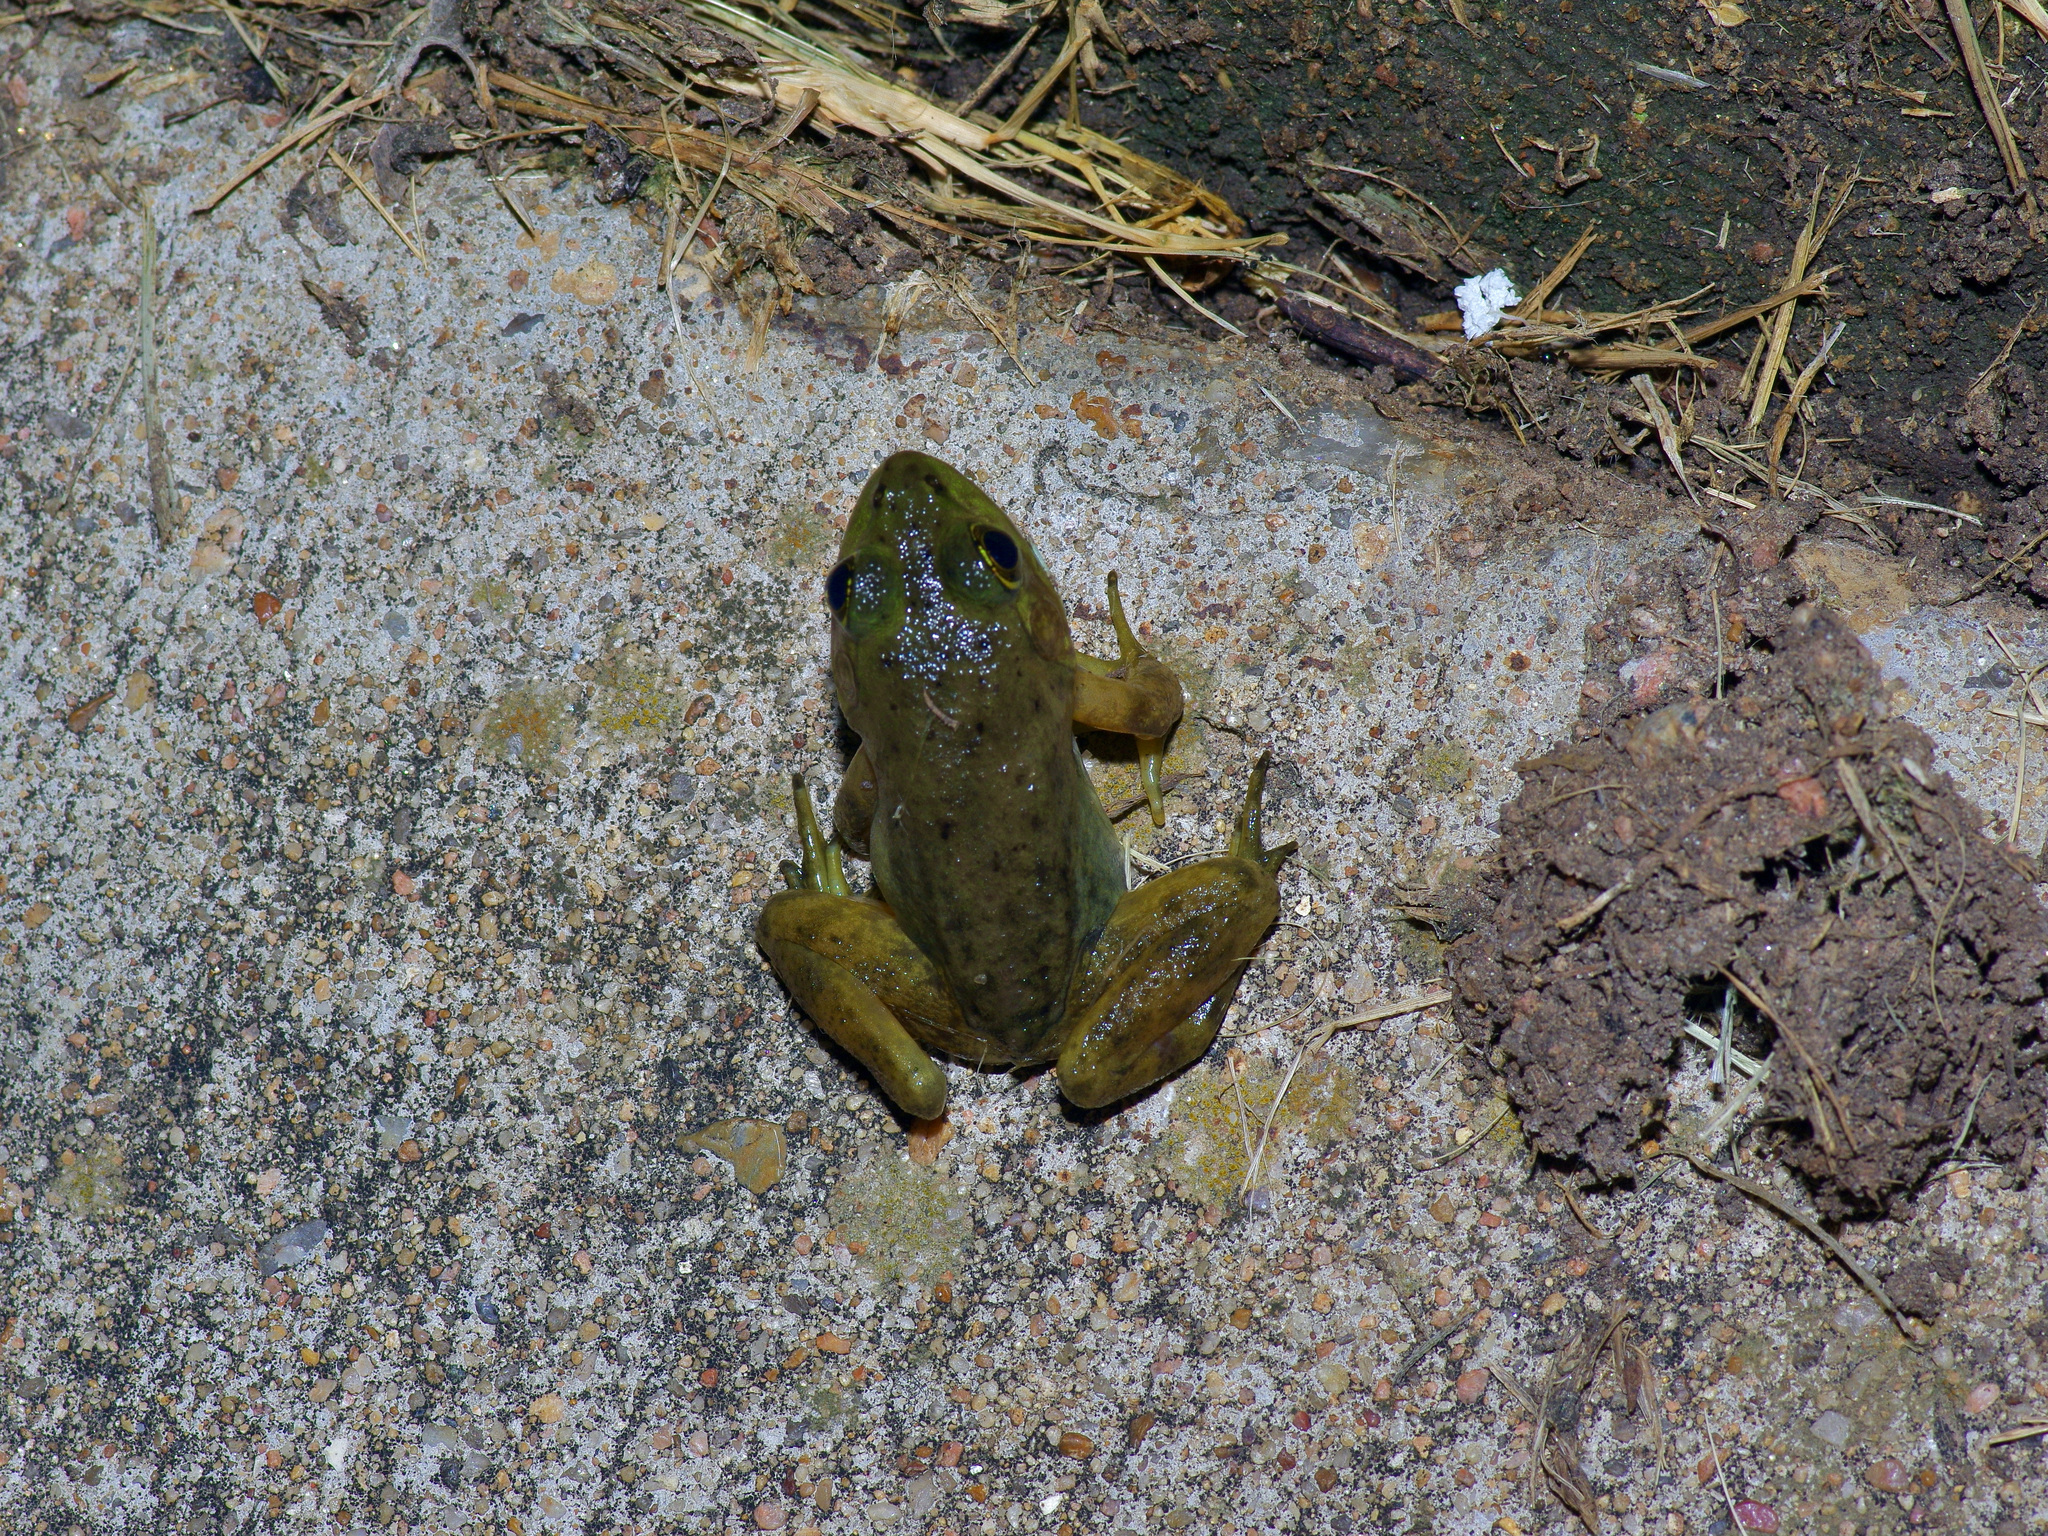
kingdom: Animalia
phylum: Chordata
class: Amphibia
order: Anura
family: Ranidae
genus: Lithobates
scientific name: Lithobates catesbeianus
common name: American bullfrog
